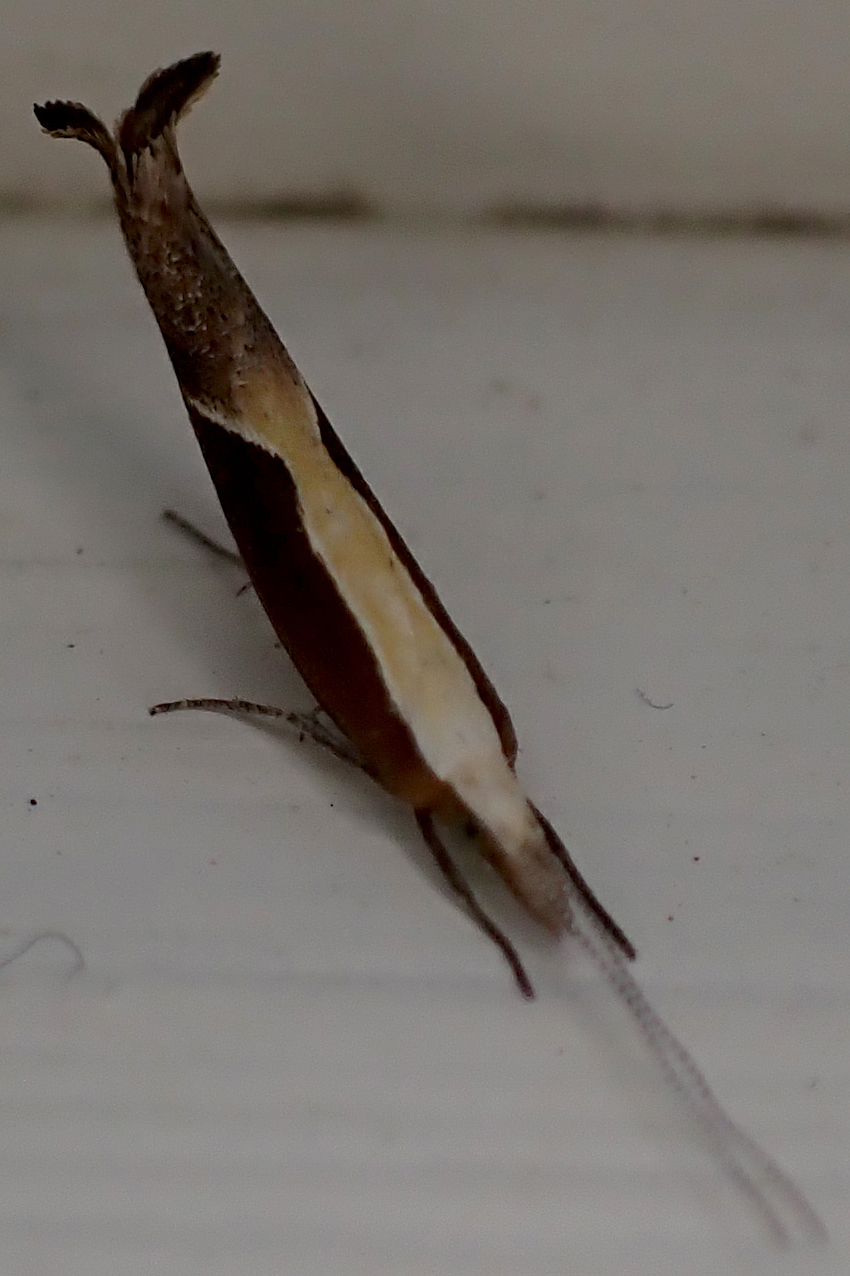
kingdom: Animalia
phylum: Arthropoda
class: Insecta
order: Lepidoptera
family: Ypsolophidae
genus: Ypsolopha
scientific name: Ypsolopha dentella
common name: Honeysuckle moth
